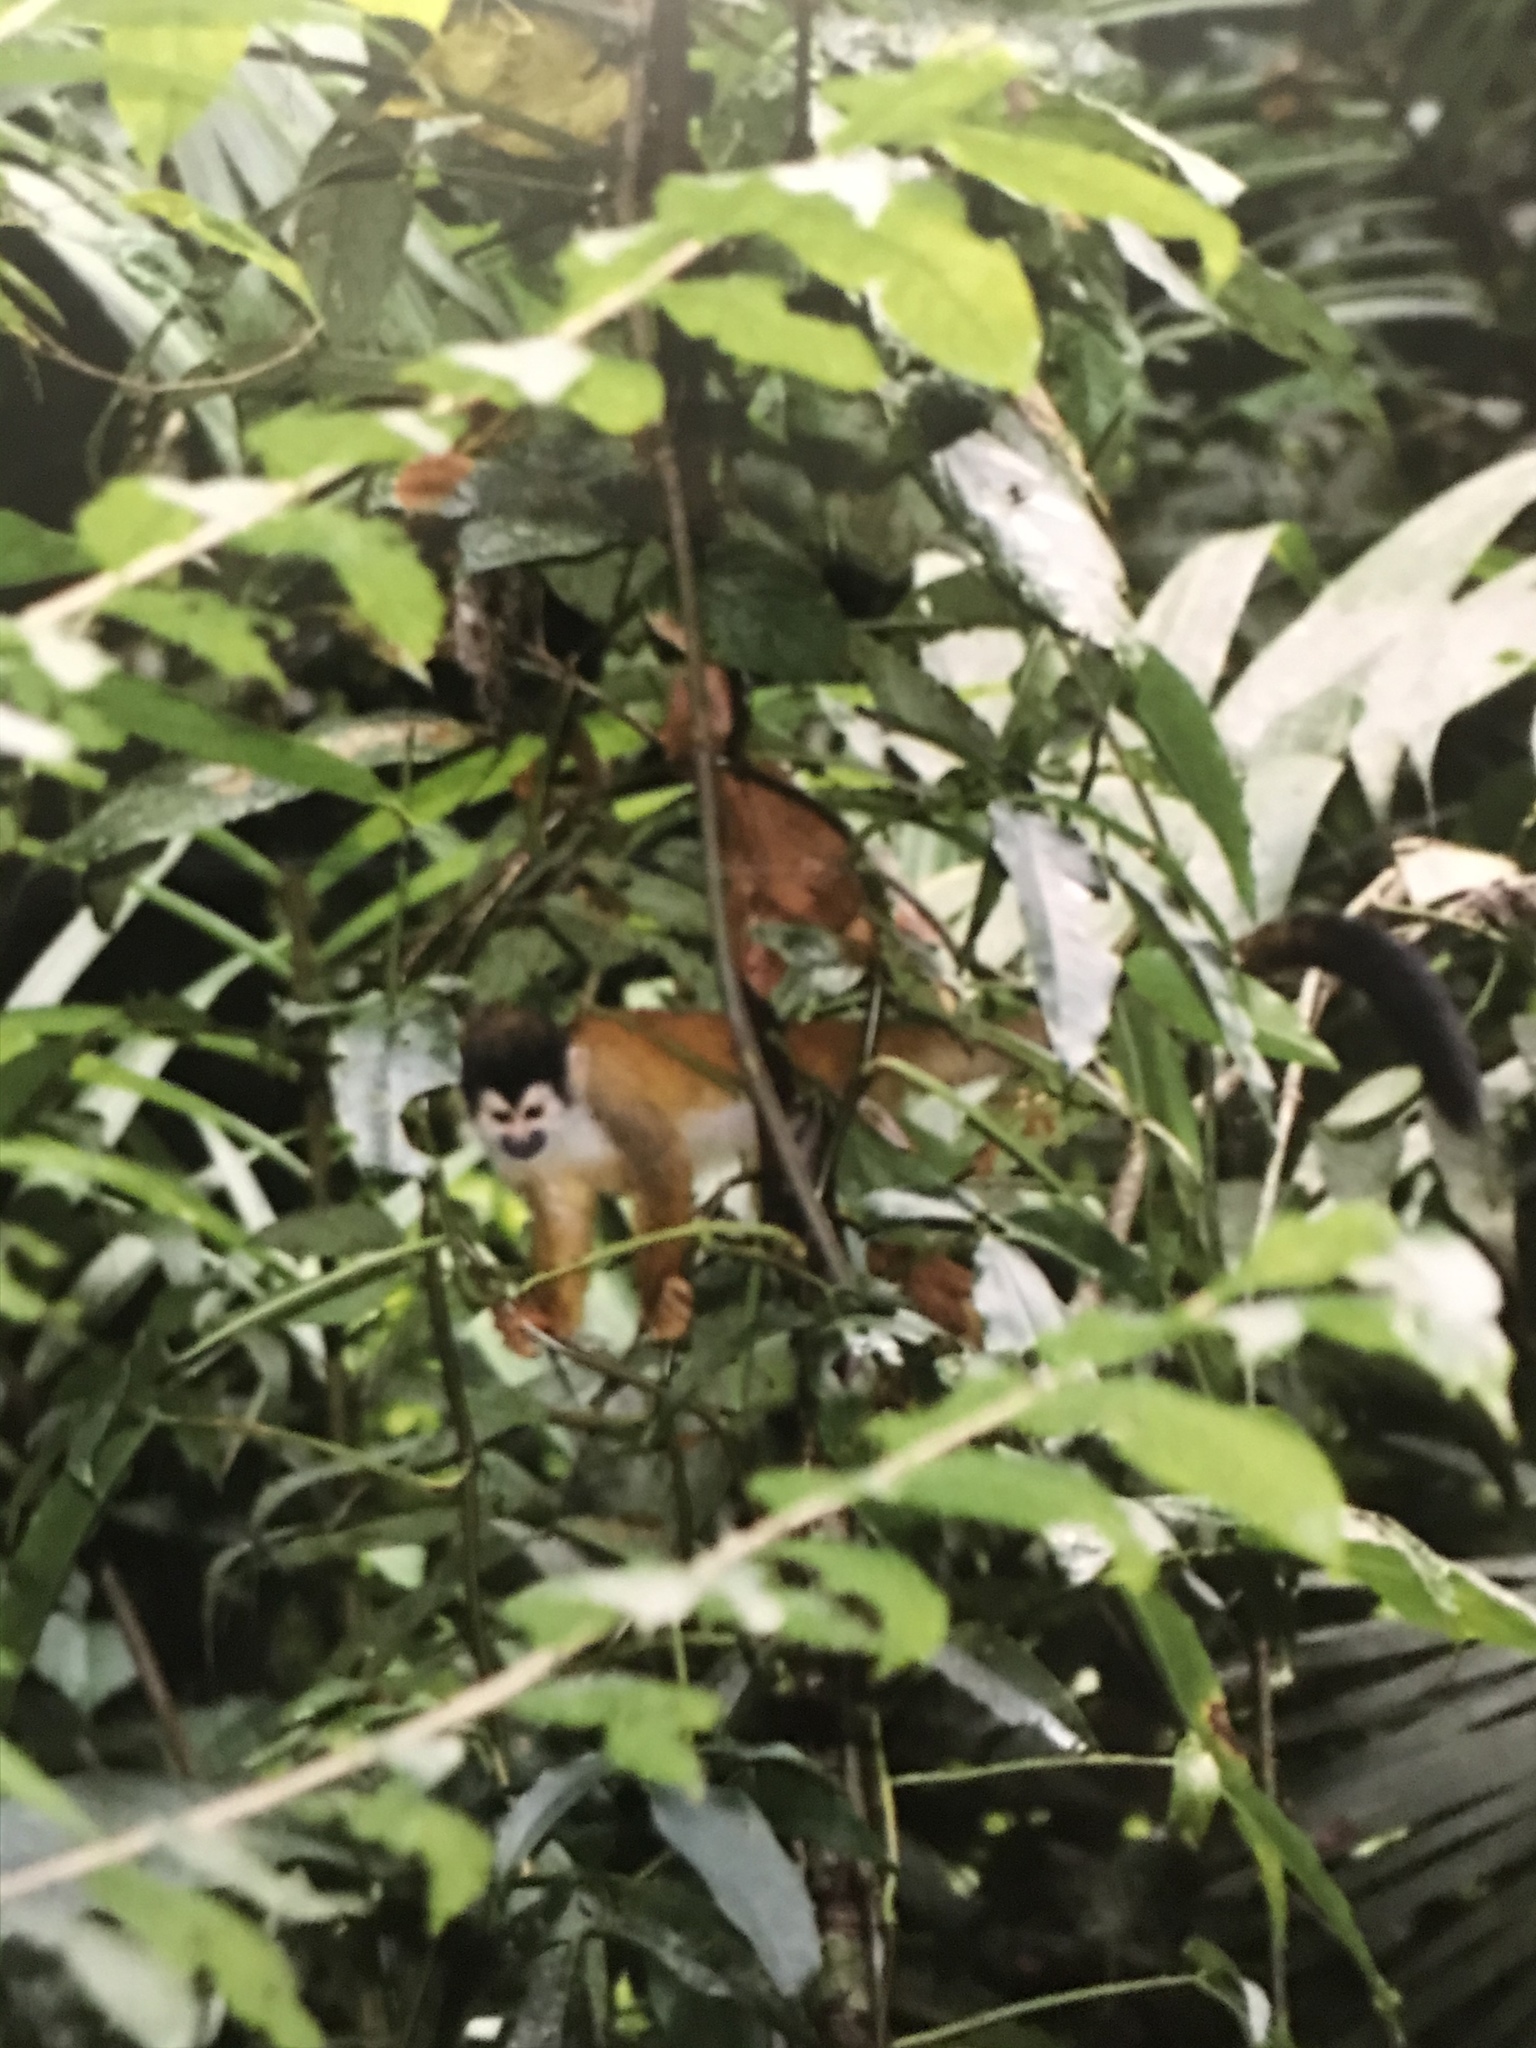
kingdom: Animalia
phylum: Chordata
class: Mammalia
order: Primates
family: Cebidae
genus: Saimiri
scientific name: Saimiri oerstedii
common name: Central american squirrel monkey
